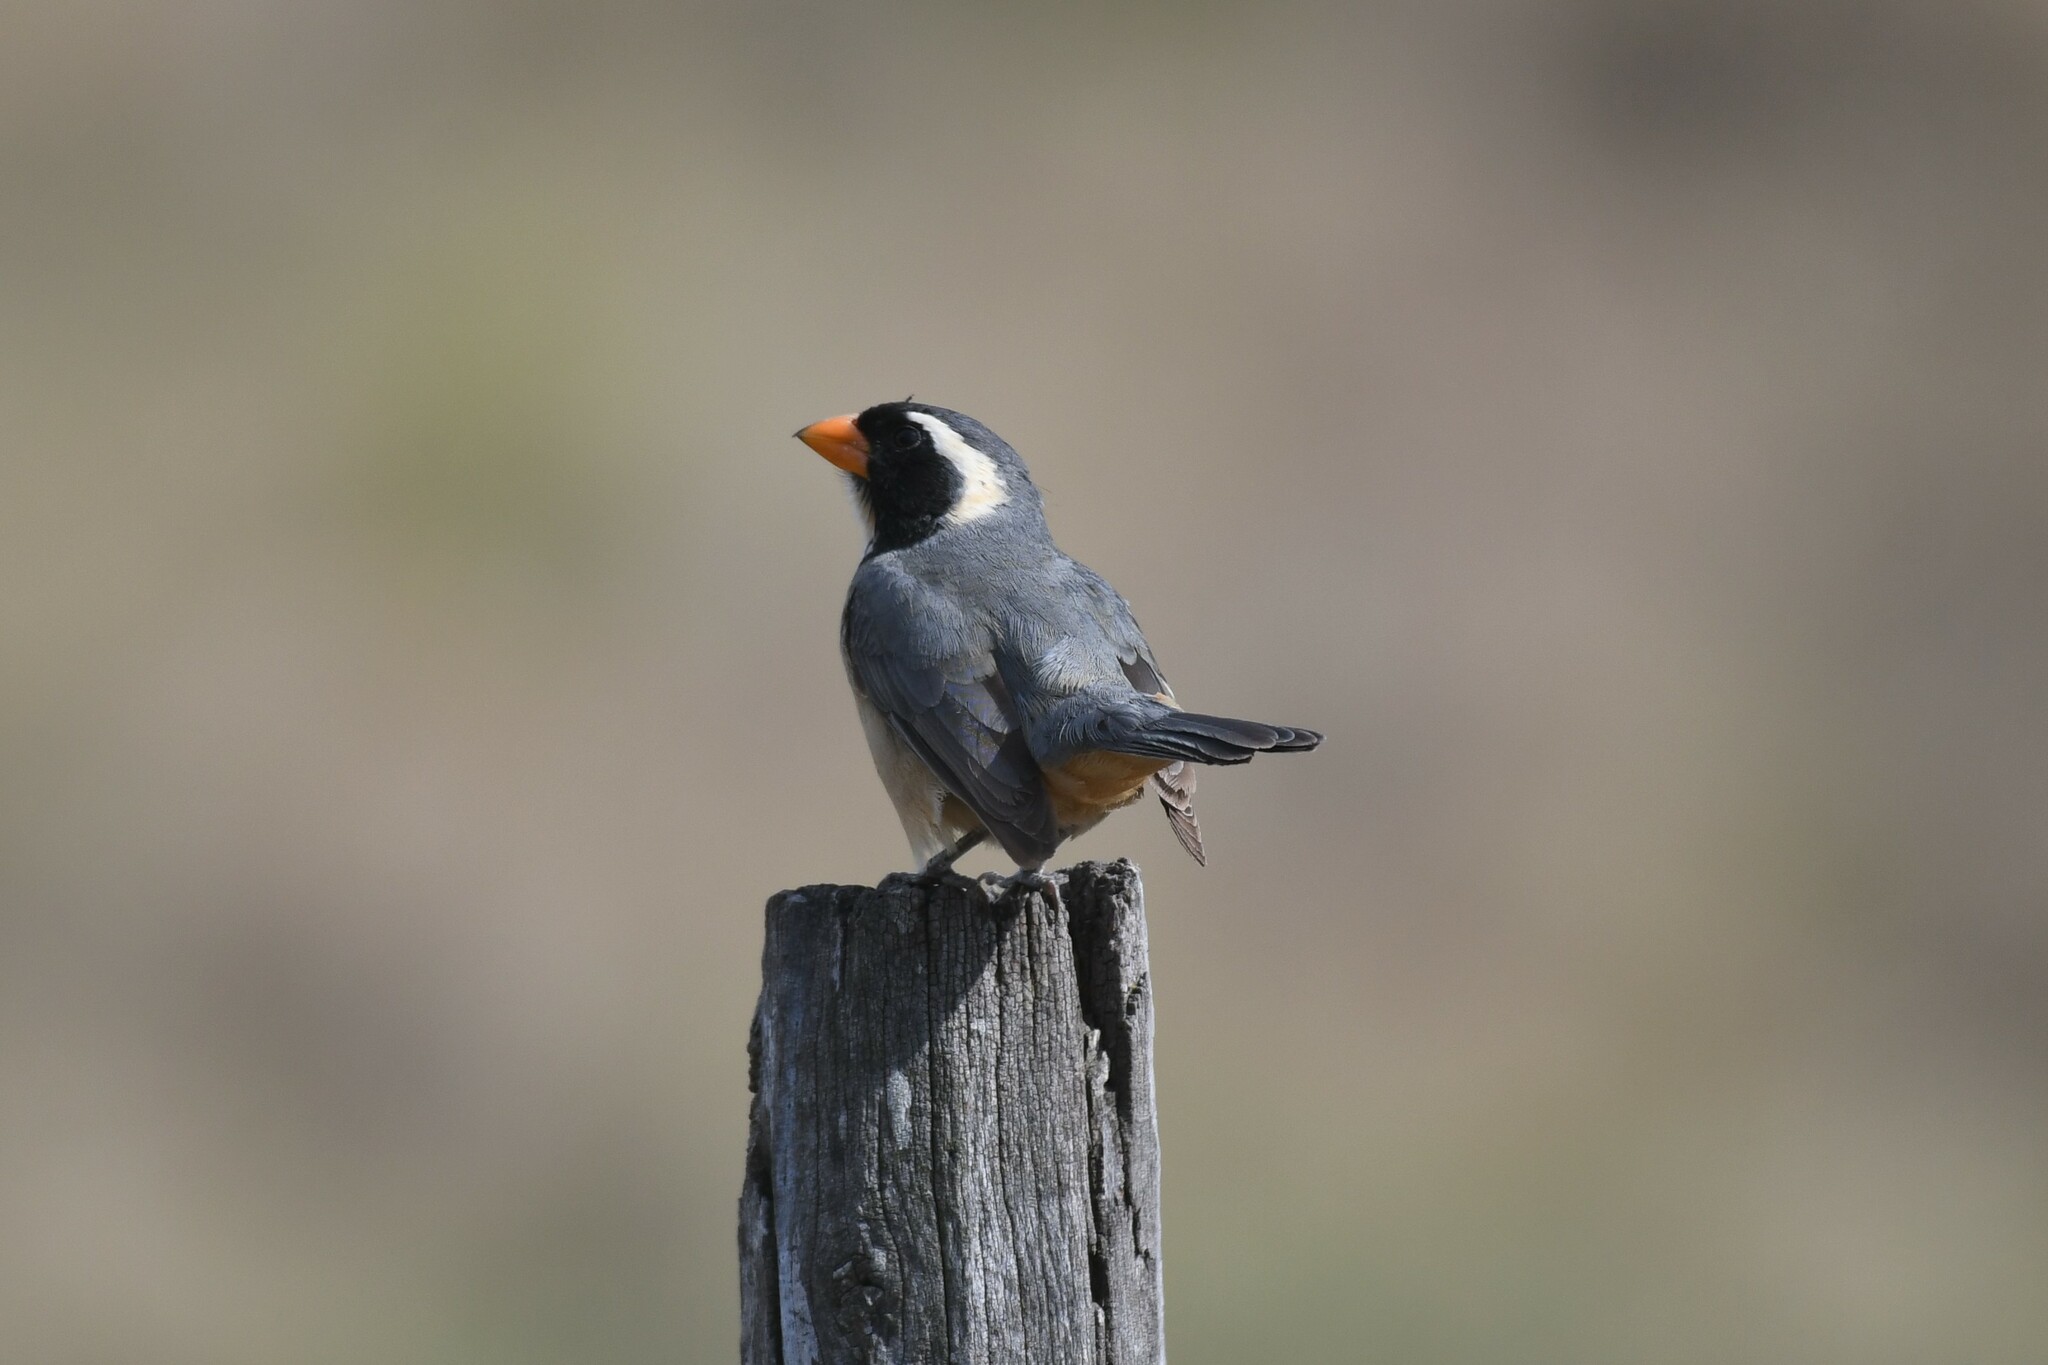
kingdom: Animalia
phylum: Chordata
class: Aves
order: Passeriformes
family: Thraupidae
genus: Saltator
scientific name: Saltator aurantiirostris
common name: Golden-billed saltator
